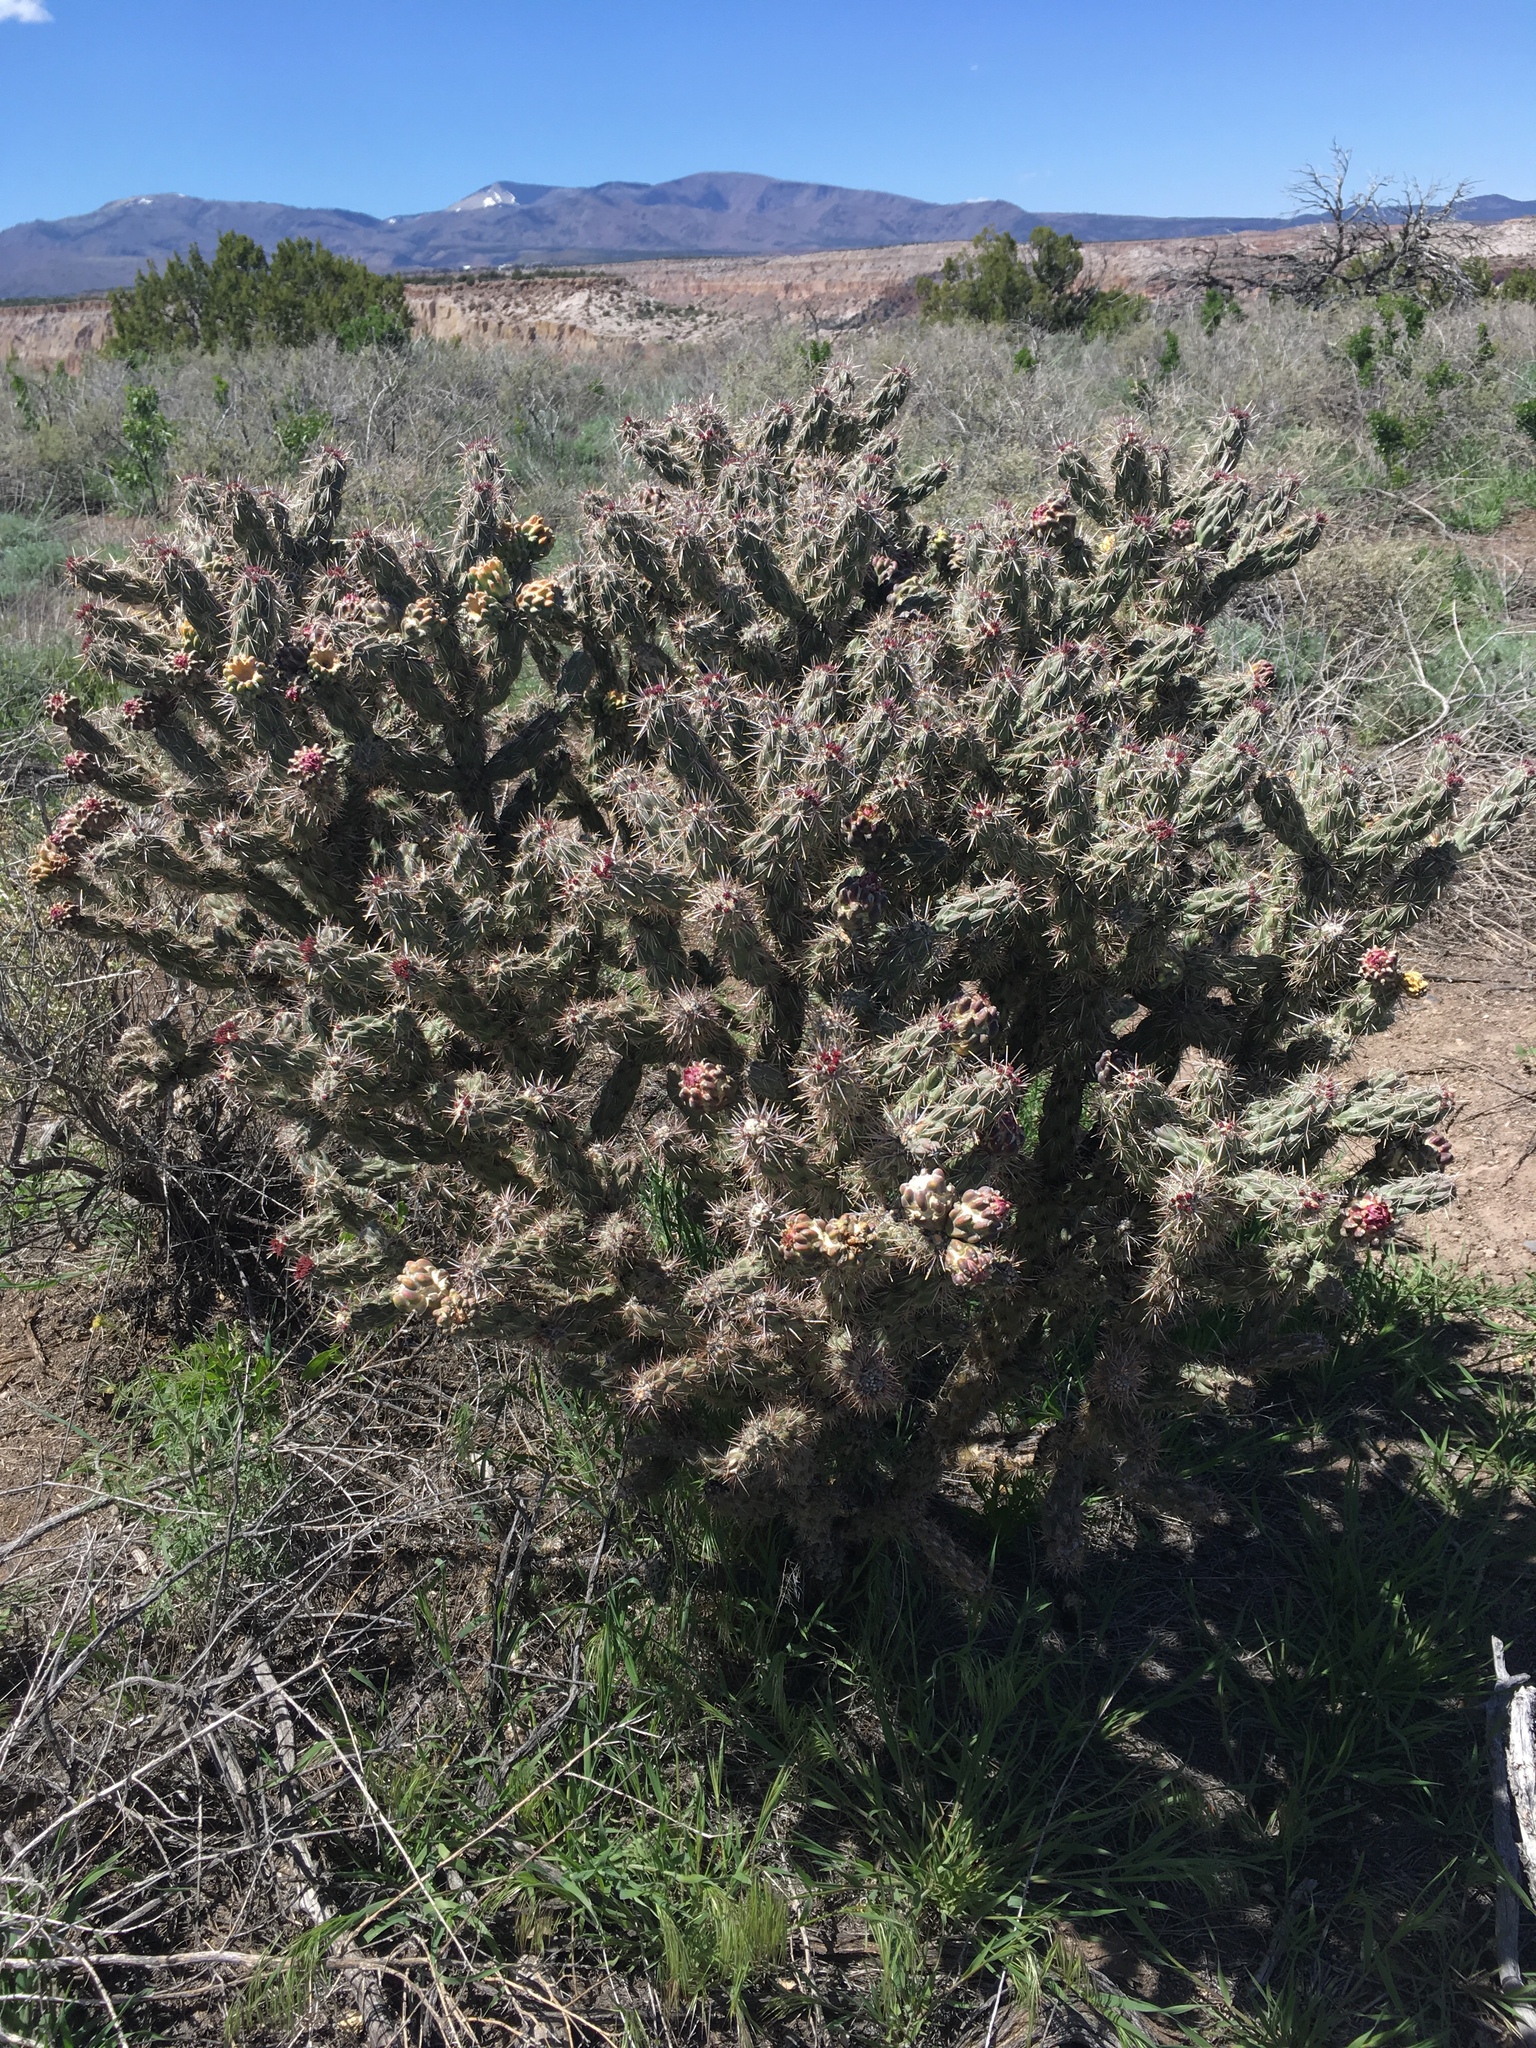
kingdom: Plantae
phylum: Tracheophyta
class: Magnoliopsida
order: Caryophyllales
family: Cactaceae
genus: Cylindropuntia
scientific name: Cylindropuntia imbricata
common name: Candelabrum cactus
